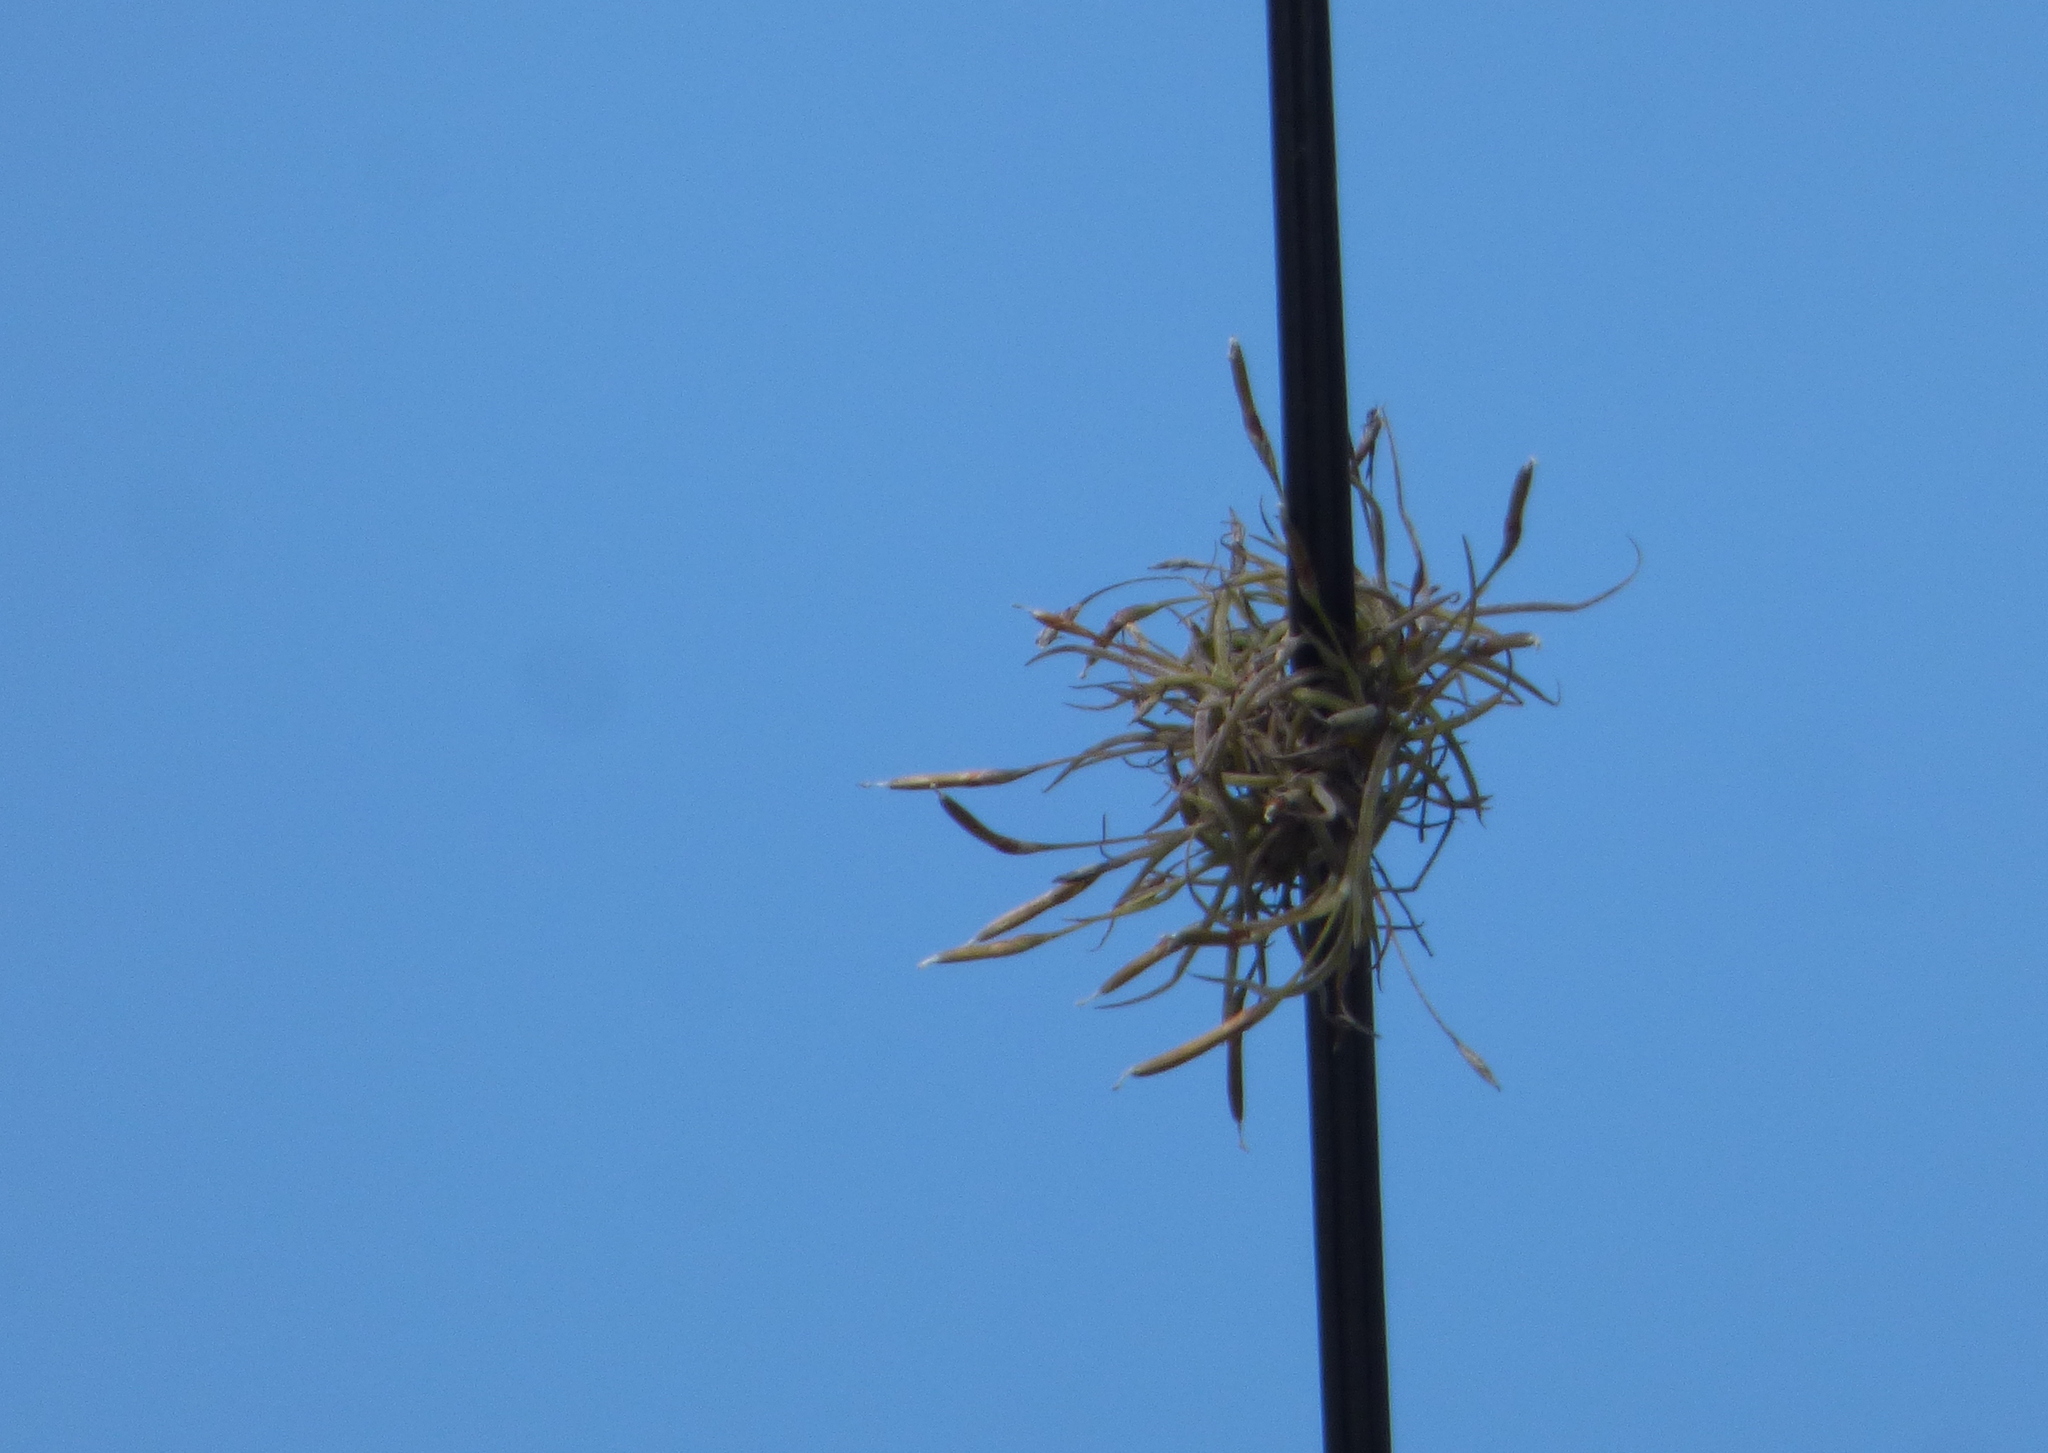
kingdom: Plantae
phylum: Tracheophyta
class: Liliopsida
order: Poales
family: Bromeliaceae
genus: Tillandsia
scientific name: Tillandsia recurvata
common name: Small ballmoss
